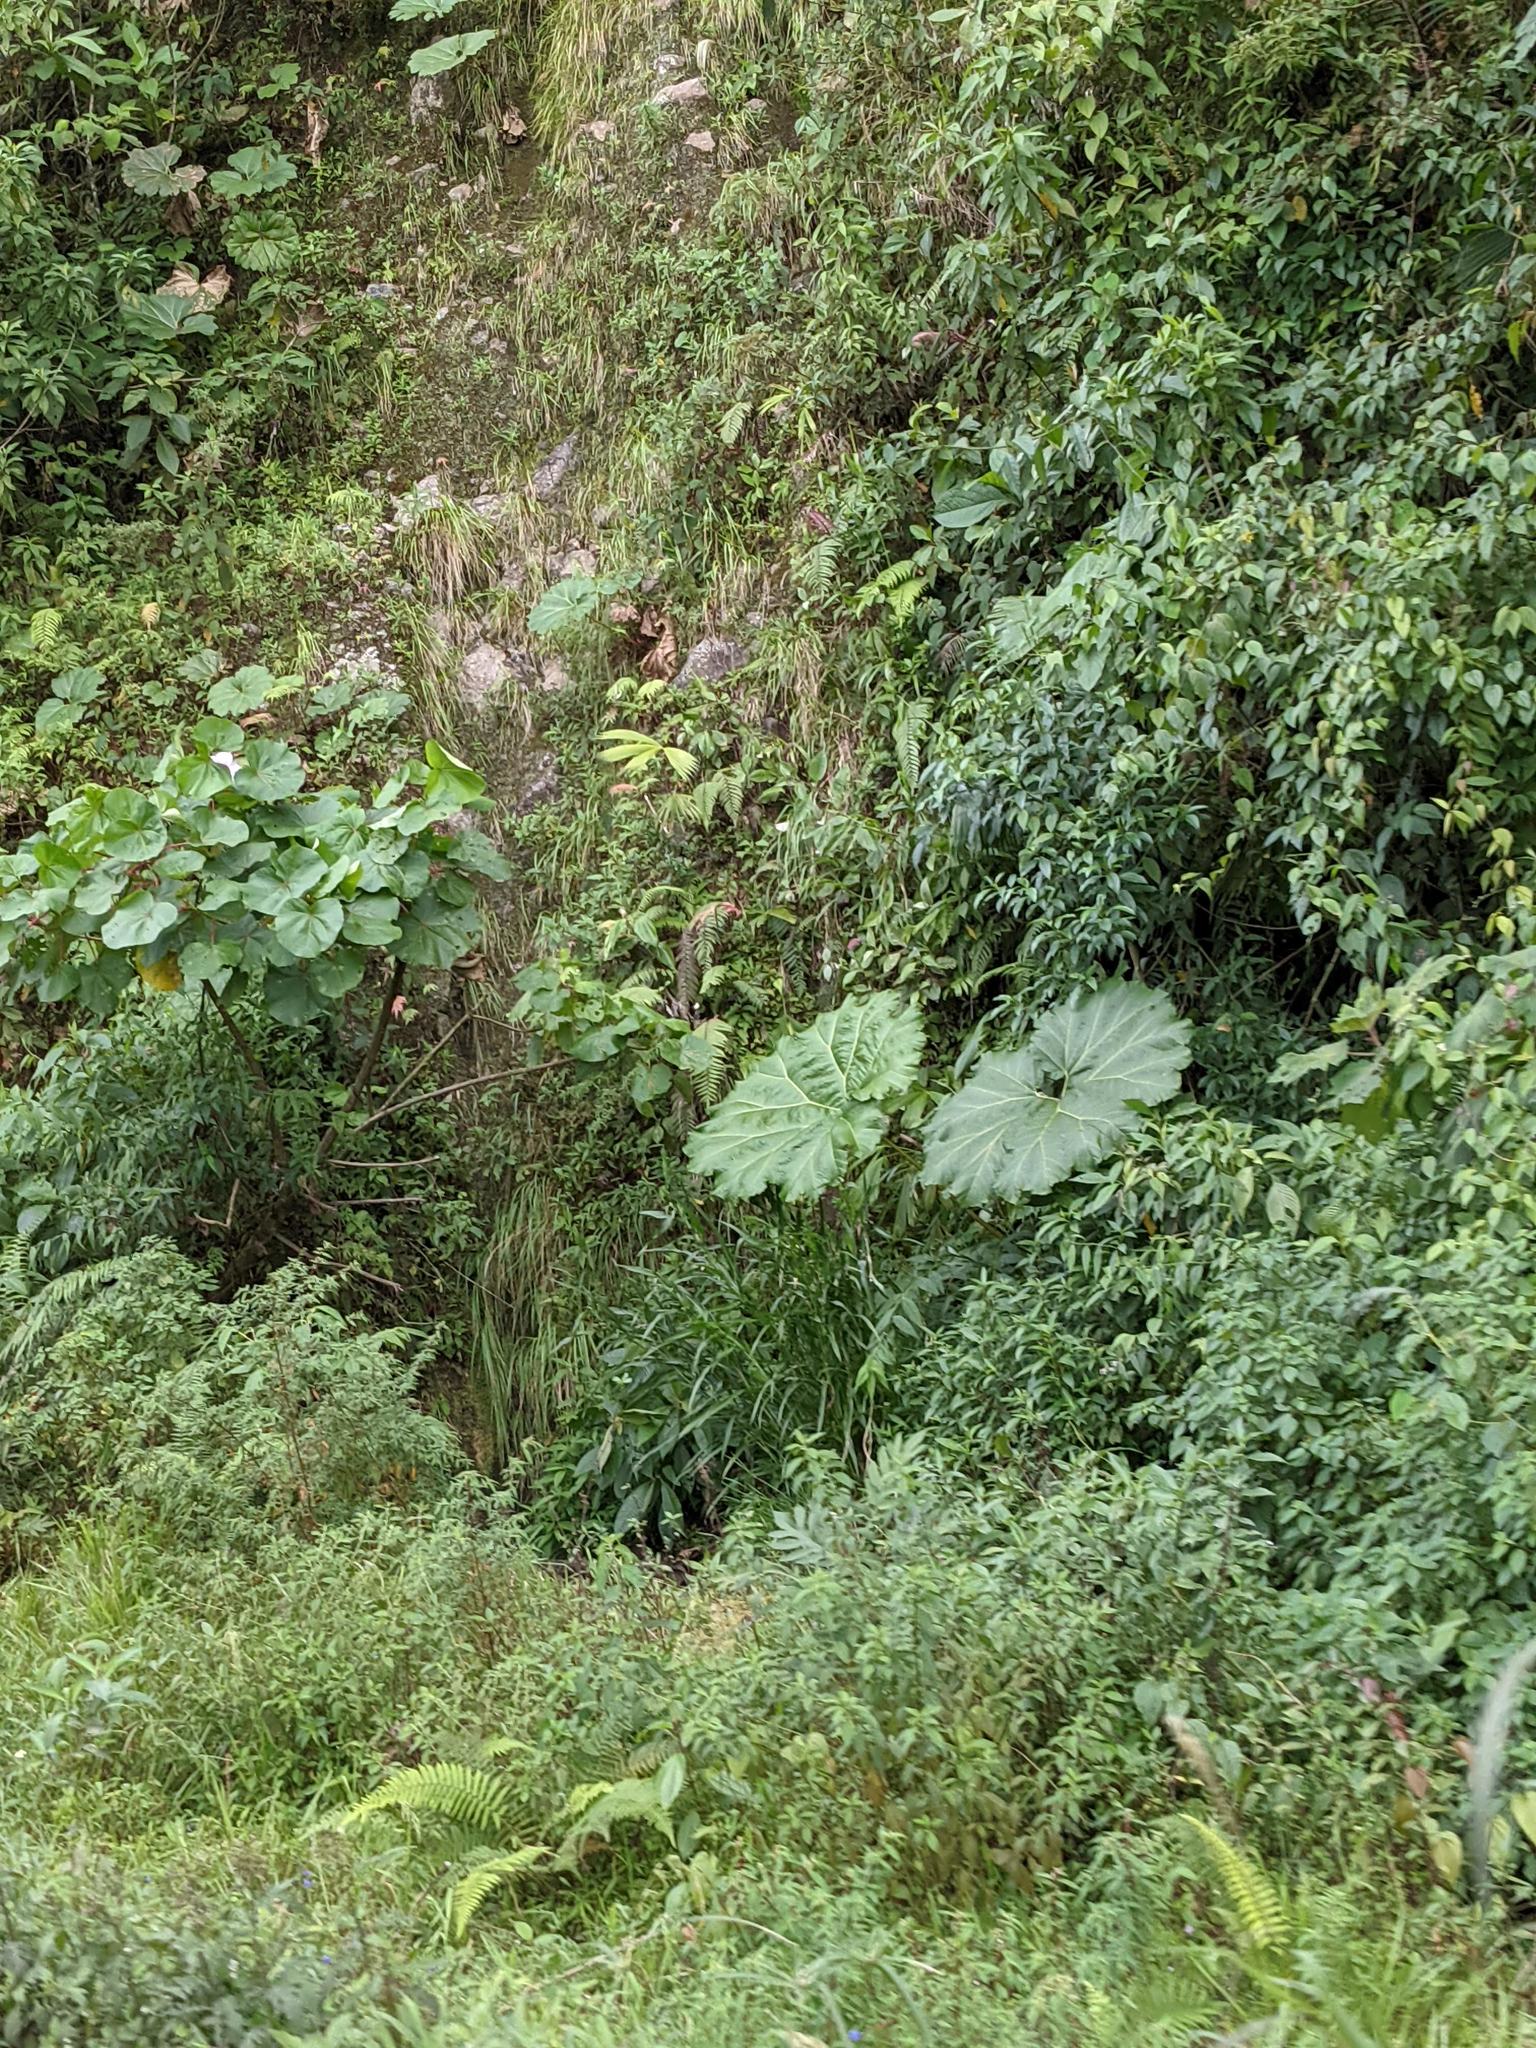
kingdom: Plantae
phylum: Tracheophyta
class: Magnoliopsida
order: Gunnerales
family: Gunneraceae
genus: Gunnera
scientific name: Gunnera insignis
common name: Poorman's umbrella
